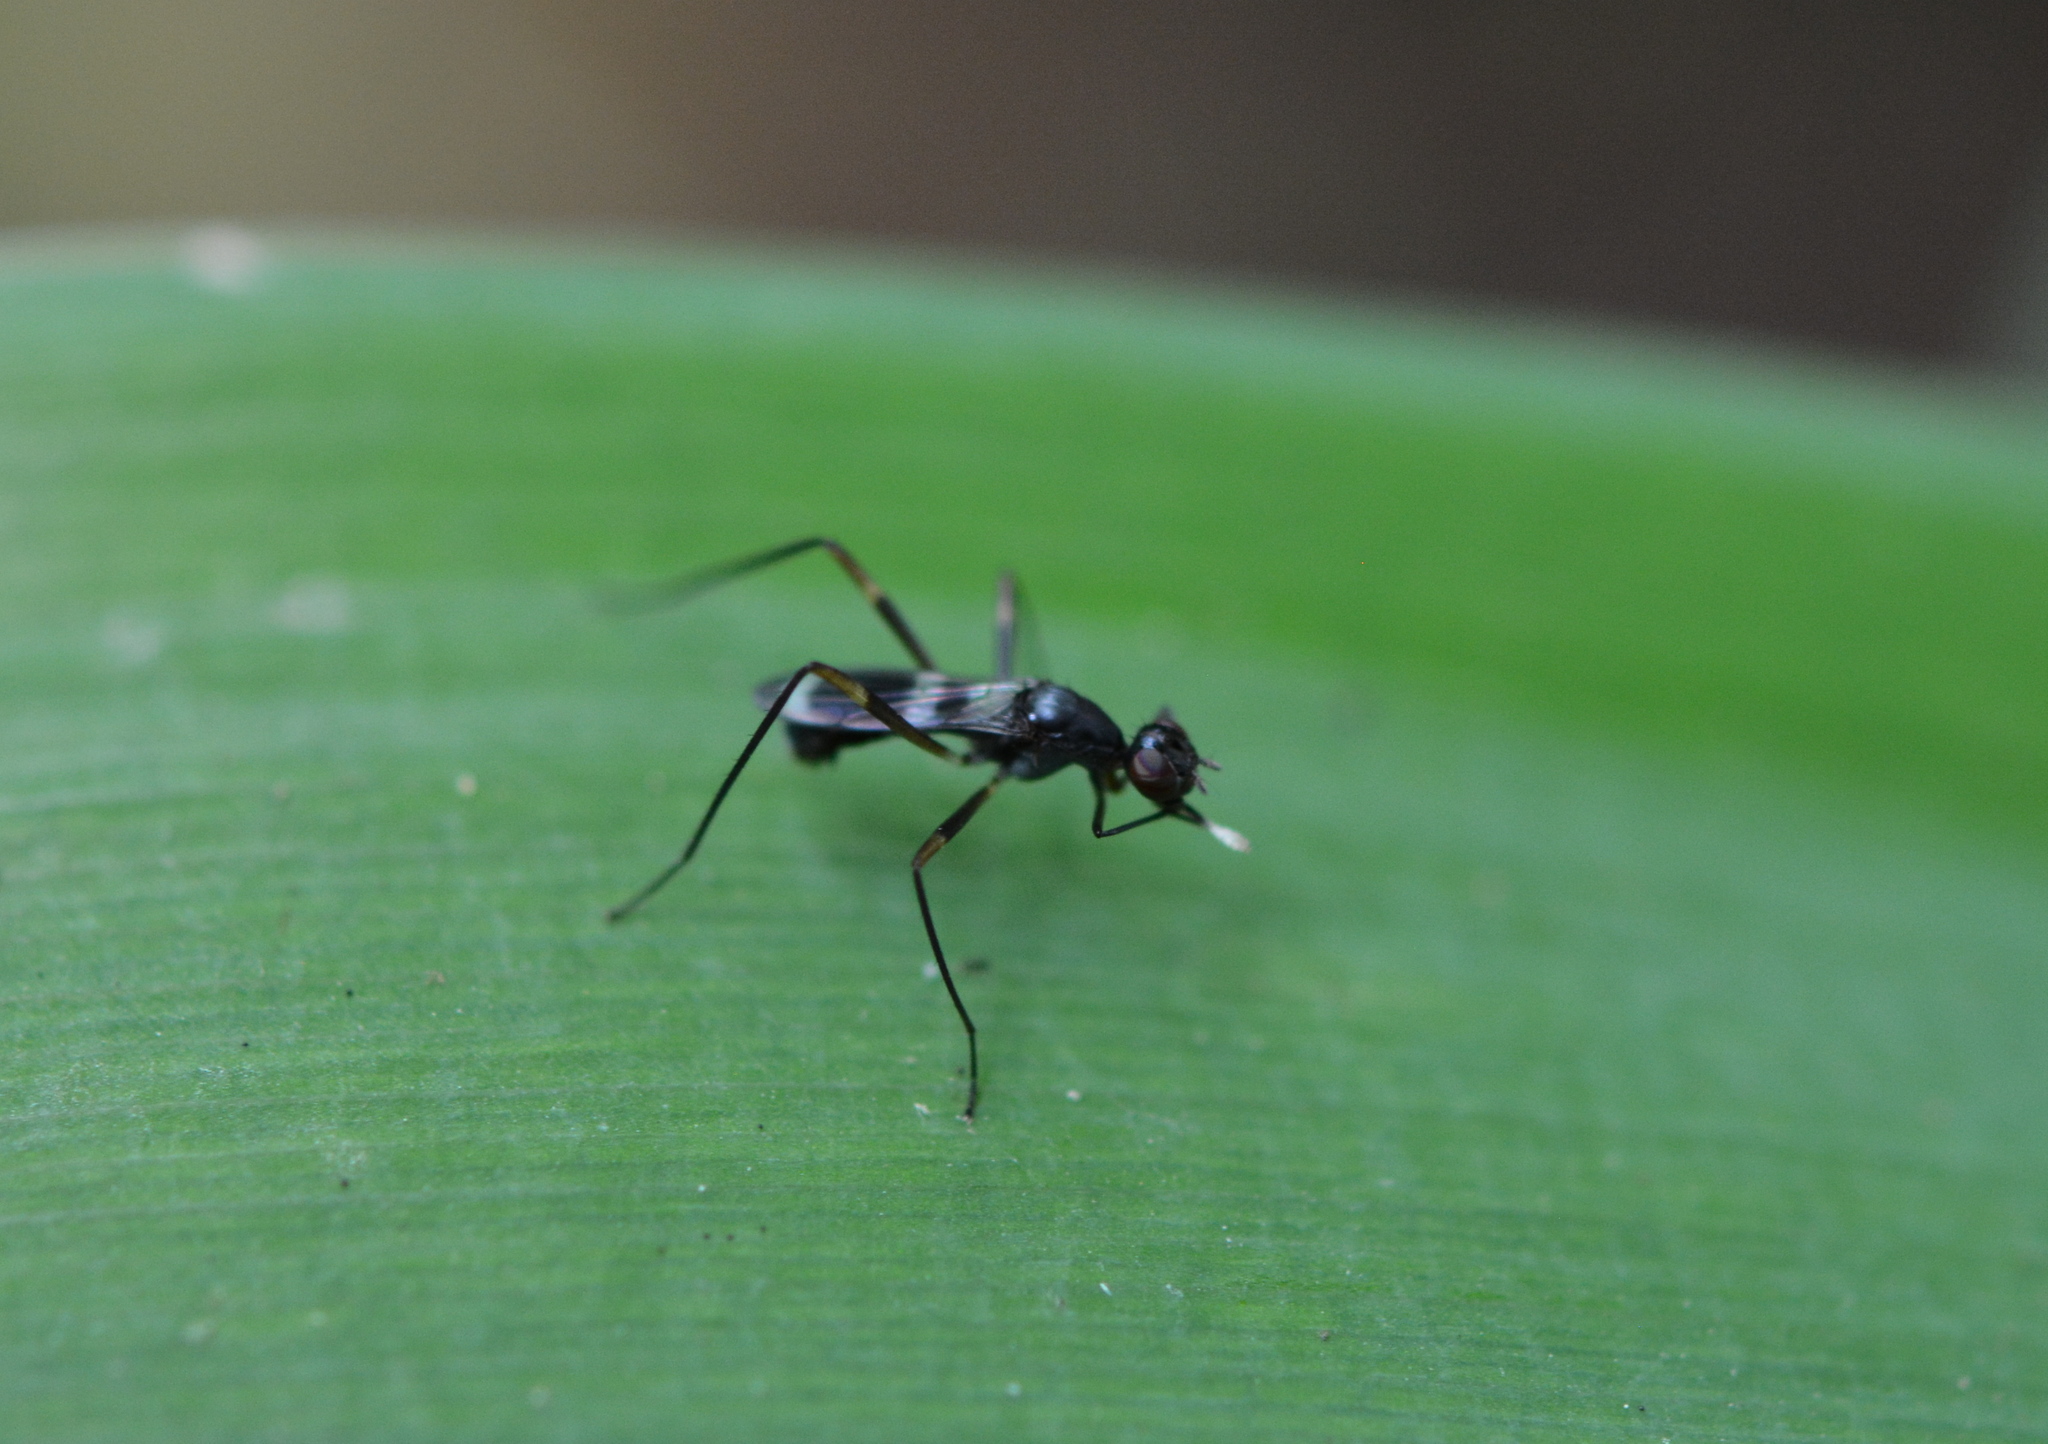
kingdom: Animalia
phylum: Arthropoda
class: Insecta
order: Diptera
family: Micropezidae
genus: Taeniaptera
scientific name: Taeniaptera trivittata
